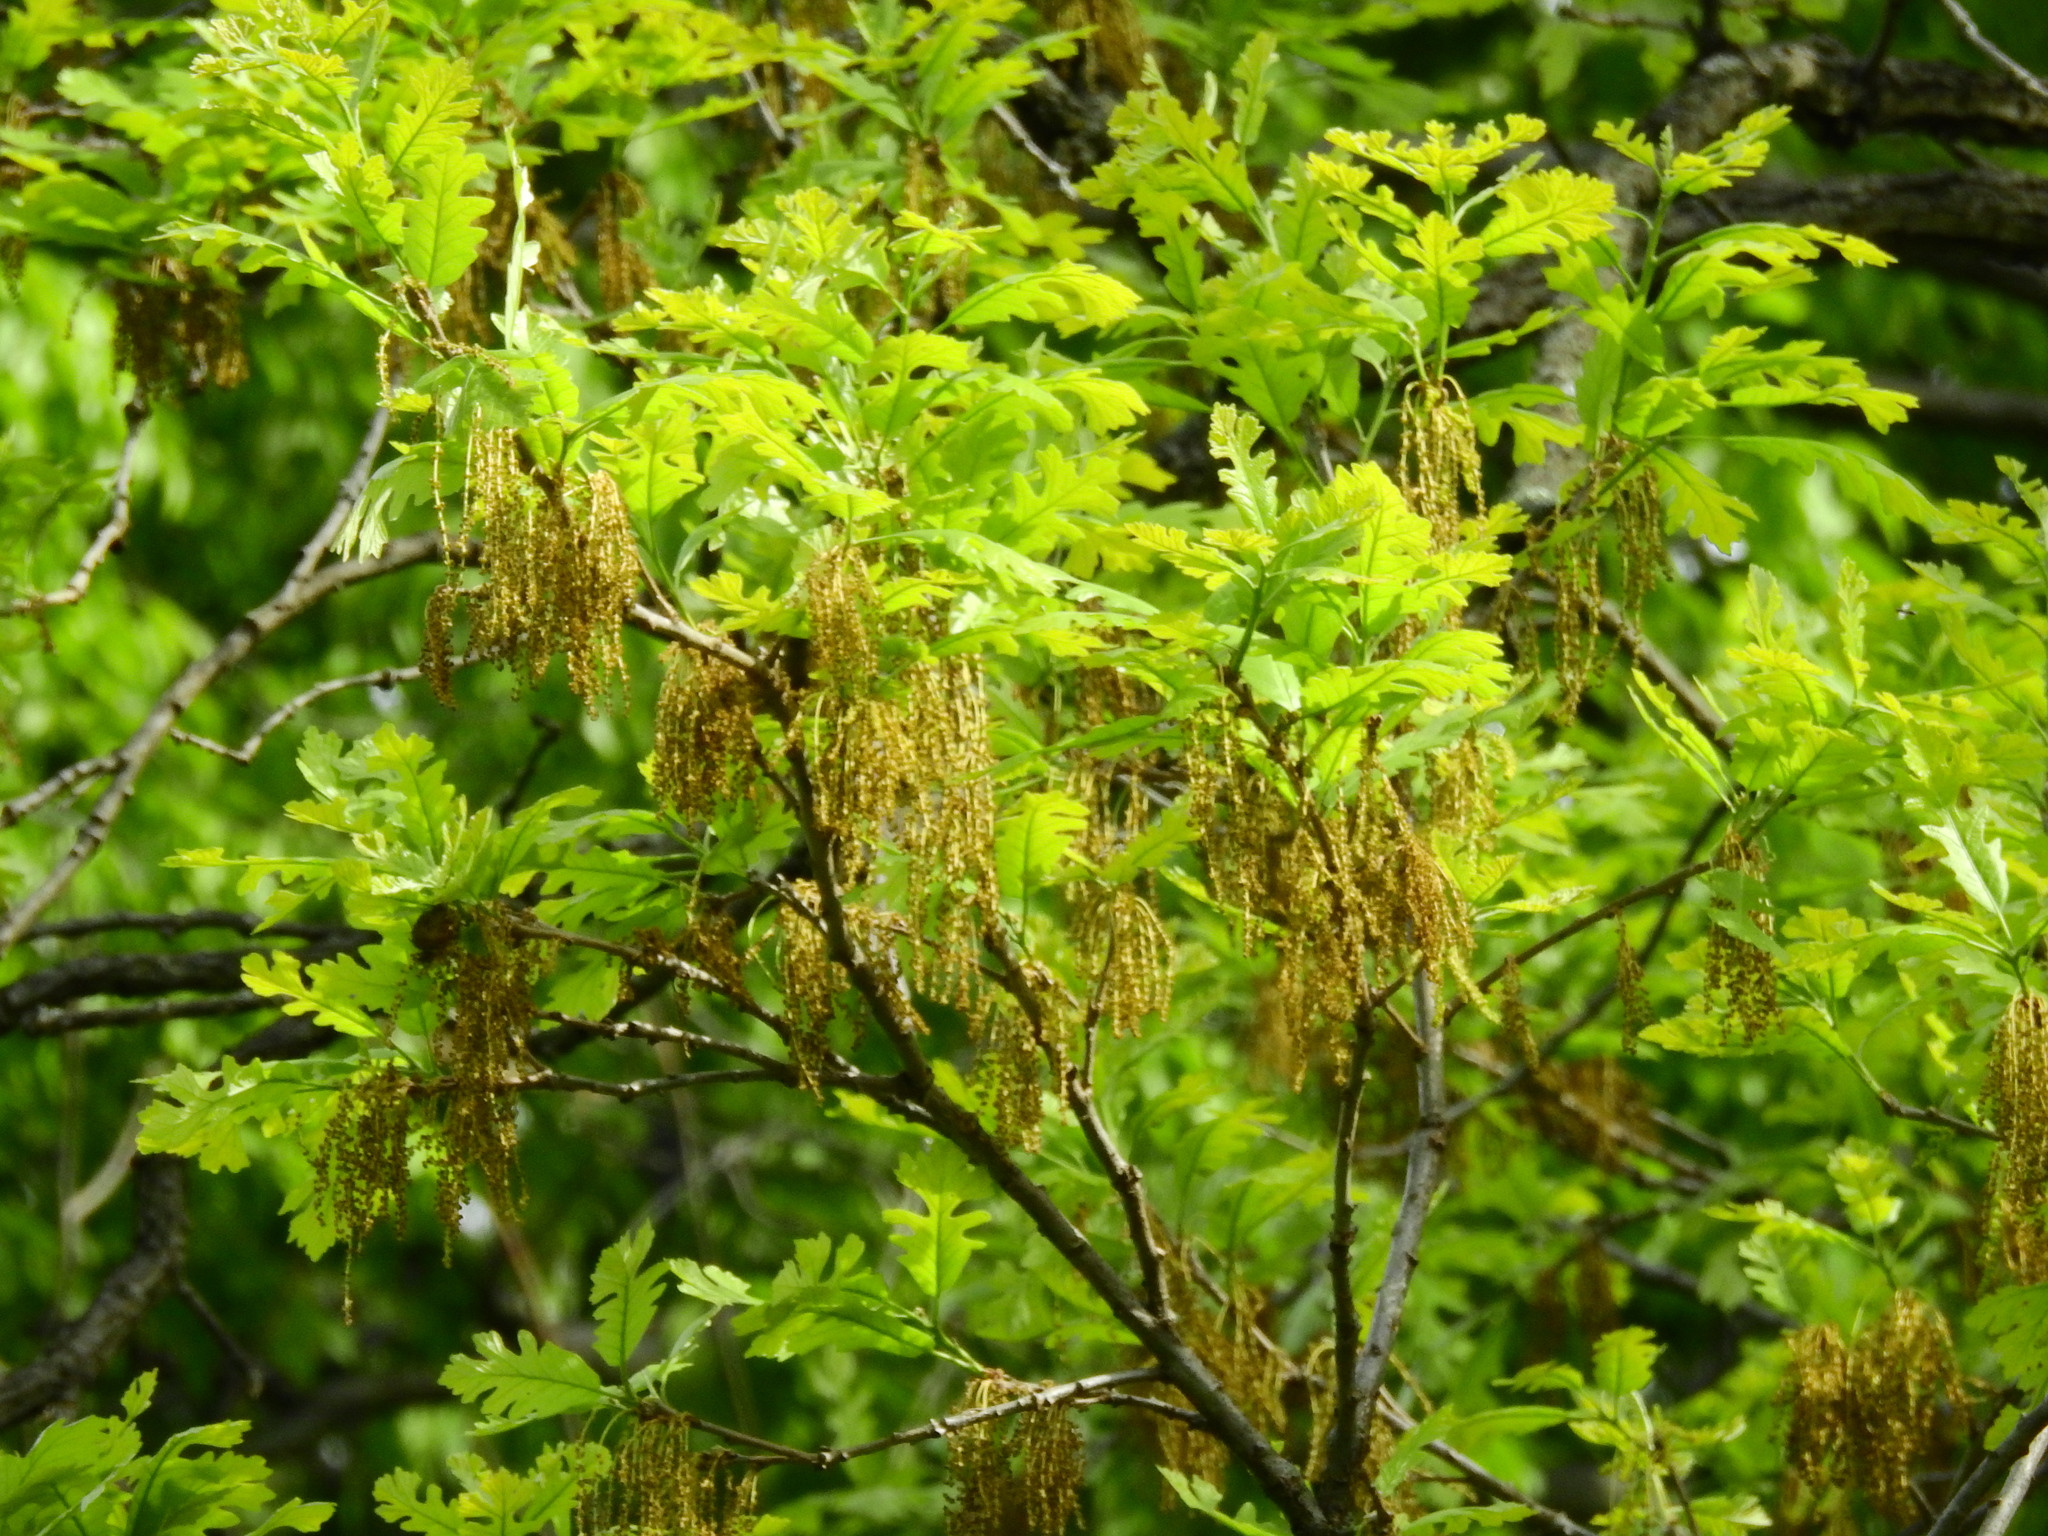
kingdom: Plantae
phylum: Tracheophyta
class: Magnoliopsida
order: Fagales
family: Fagaceae
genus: Quercus
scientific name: Quercus macrocarpa
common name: Bur oak
